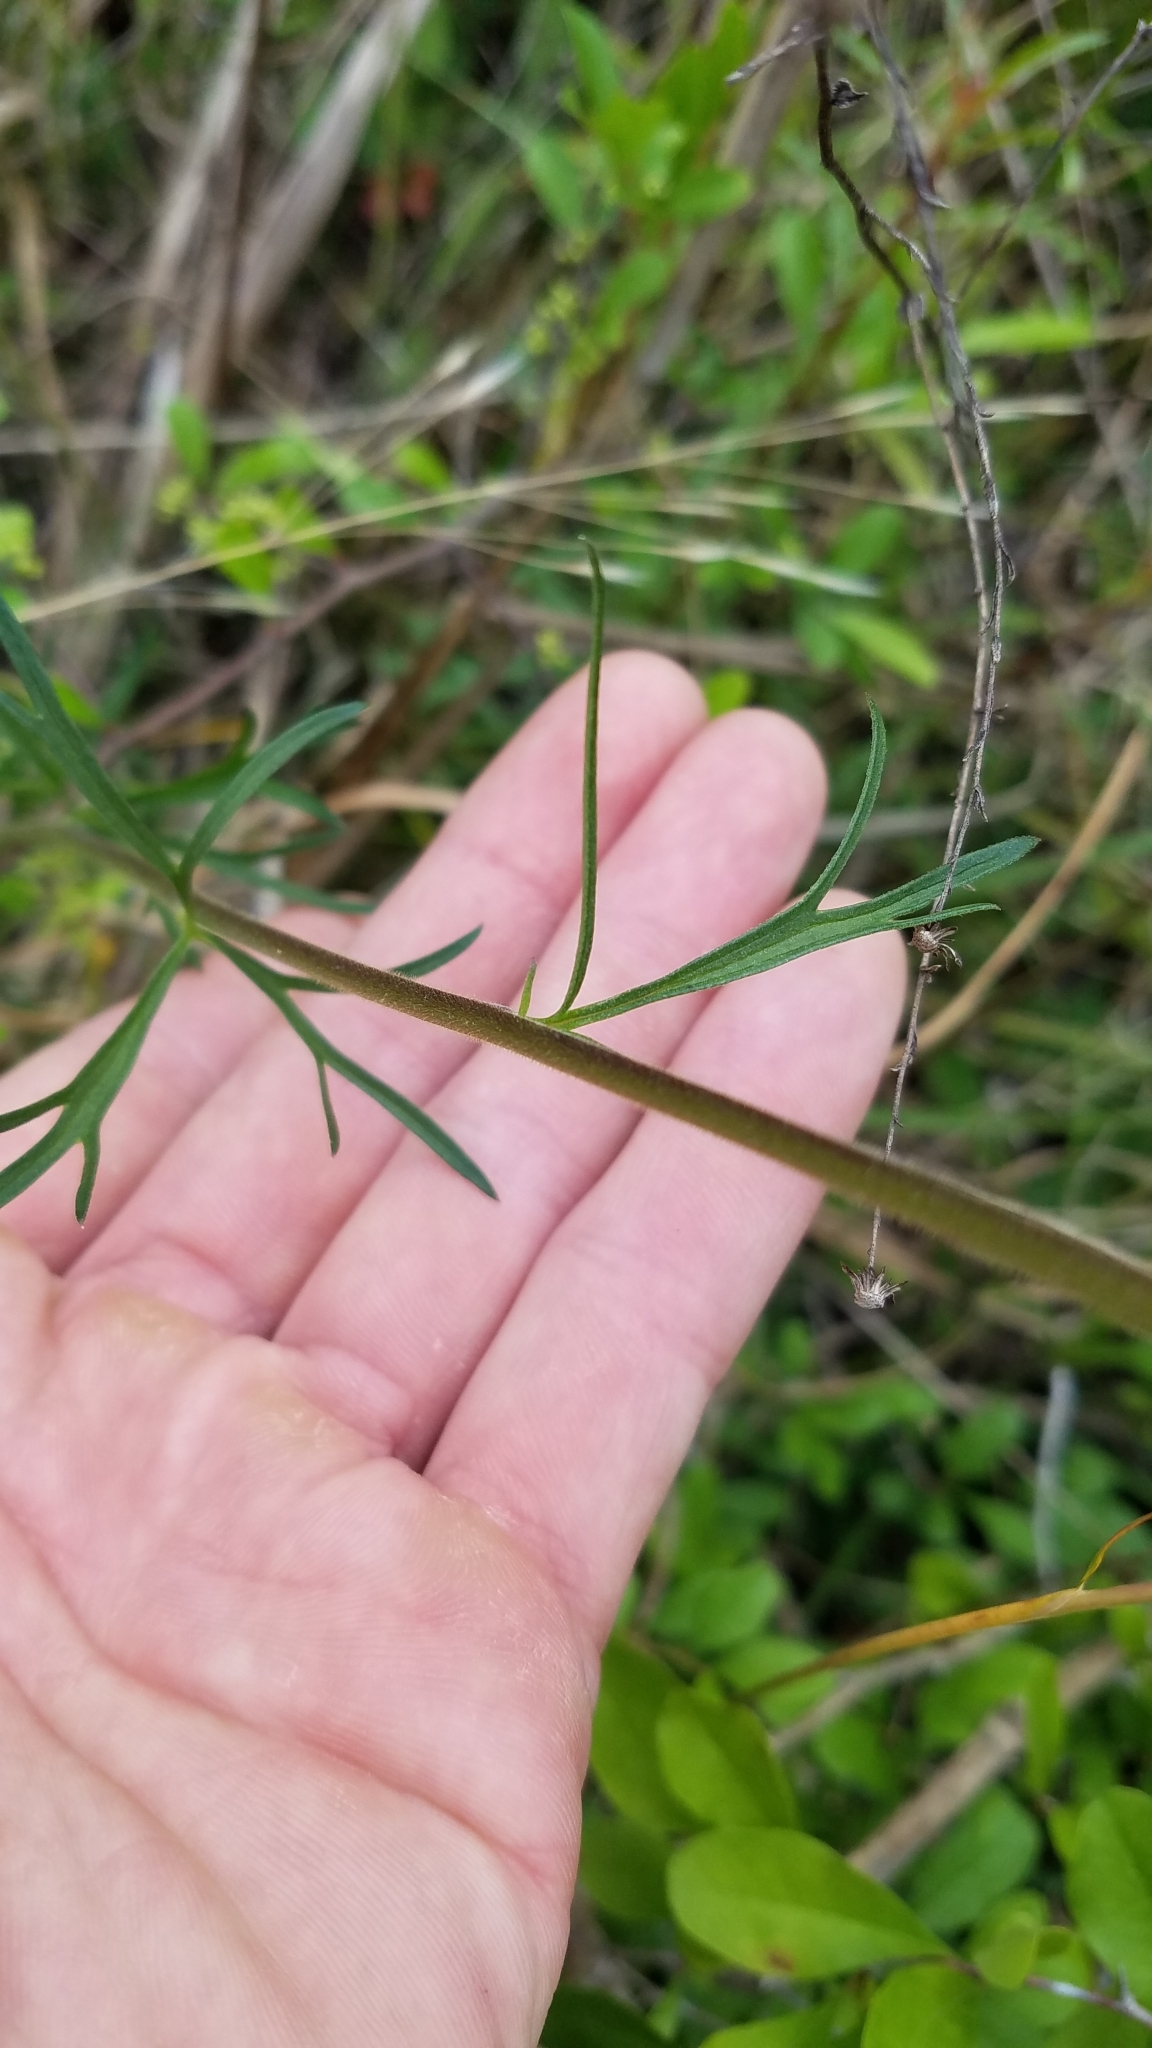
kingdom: Plantae
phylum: Tracheophyta
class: Magnoliopsida
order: Ranunculales
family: Ranunculaceae
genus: Delphinium
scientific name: Delphinium carolinianum
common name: Carolina larkspur
